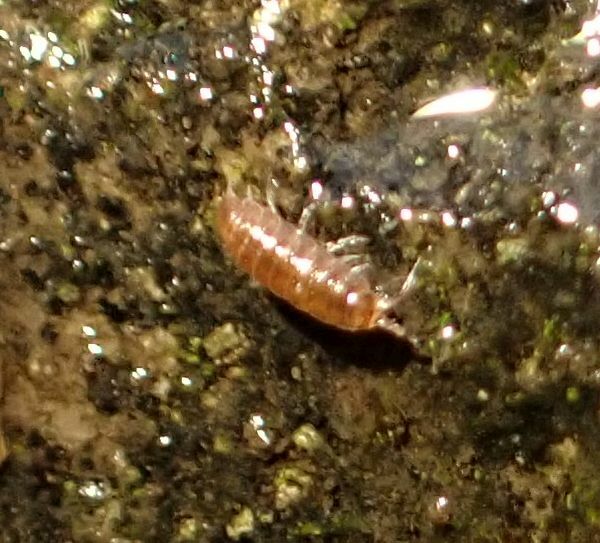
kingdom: Animalia
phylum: Arthropoda
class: Malacostraca
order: Isopoda
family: Trichoniscidae
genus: Trichoniscus
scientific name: Trichoniscus
